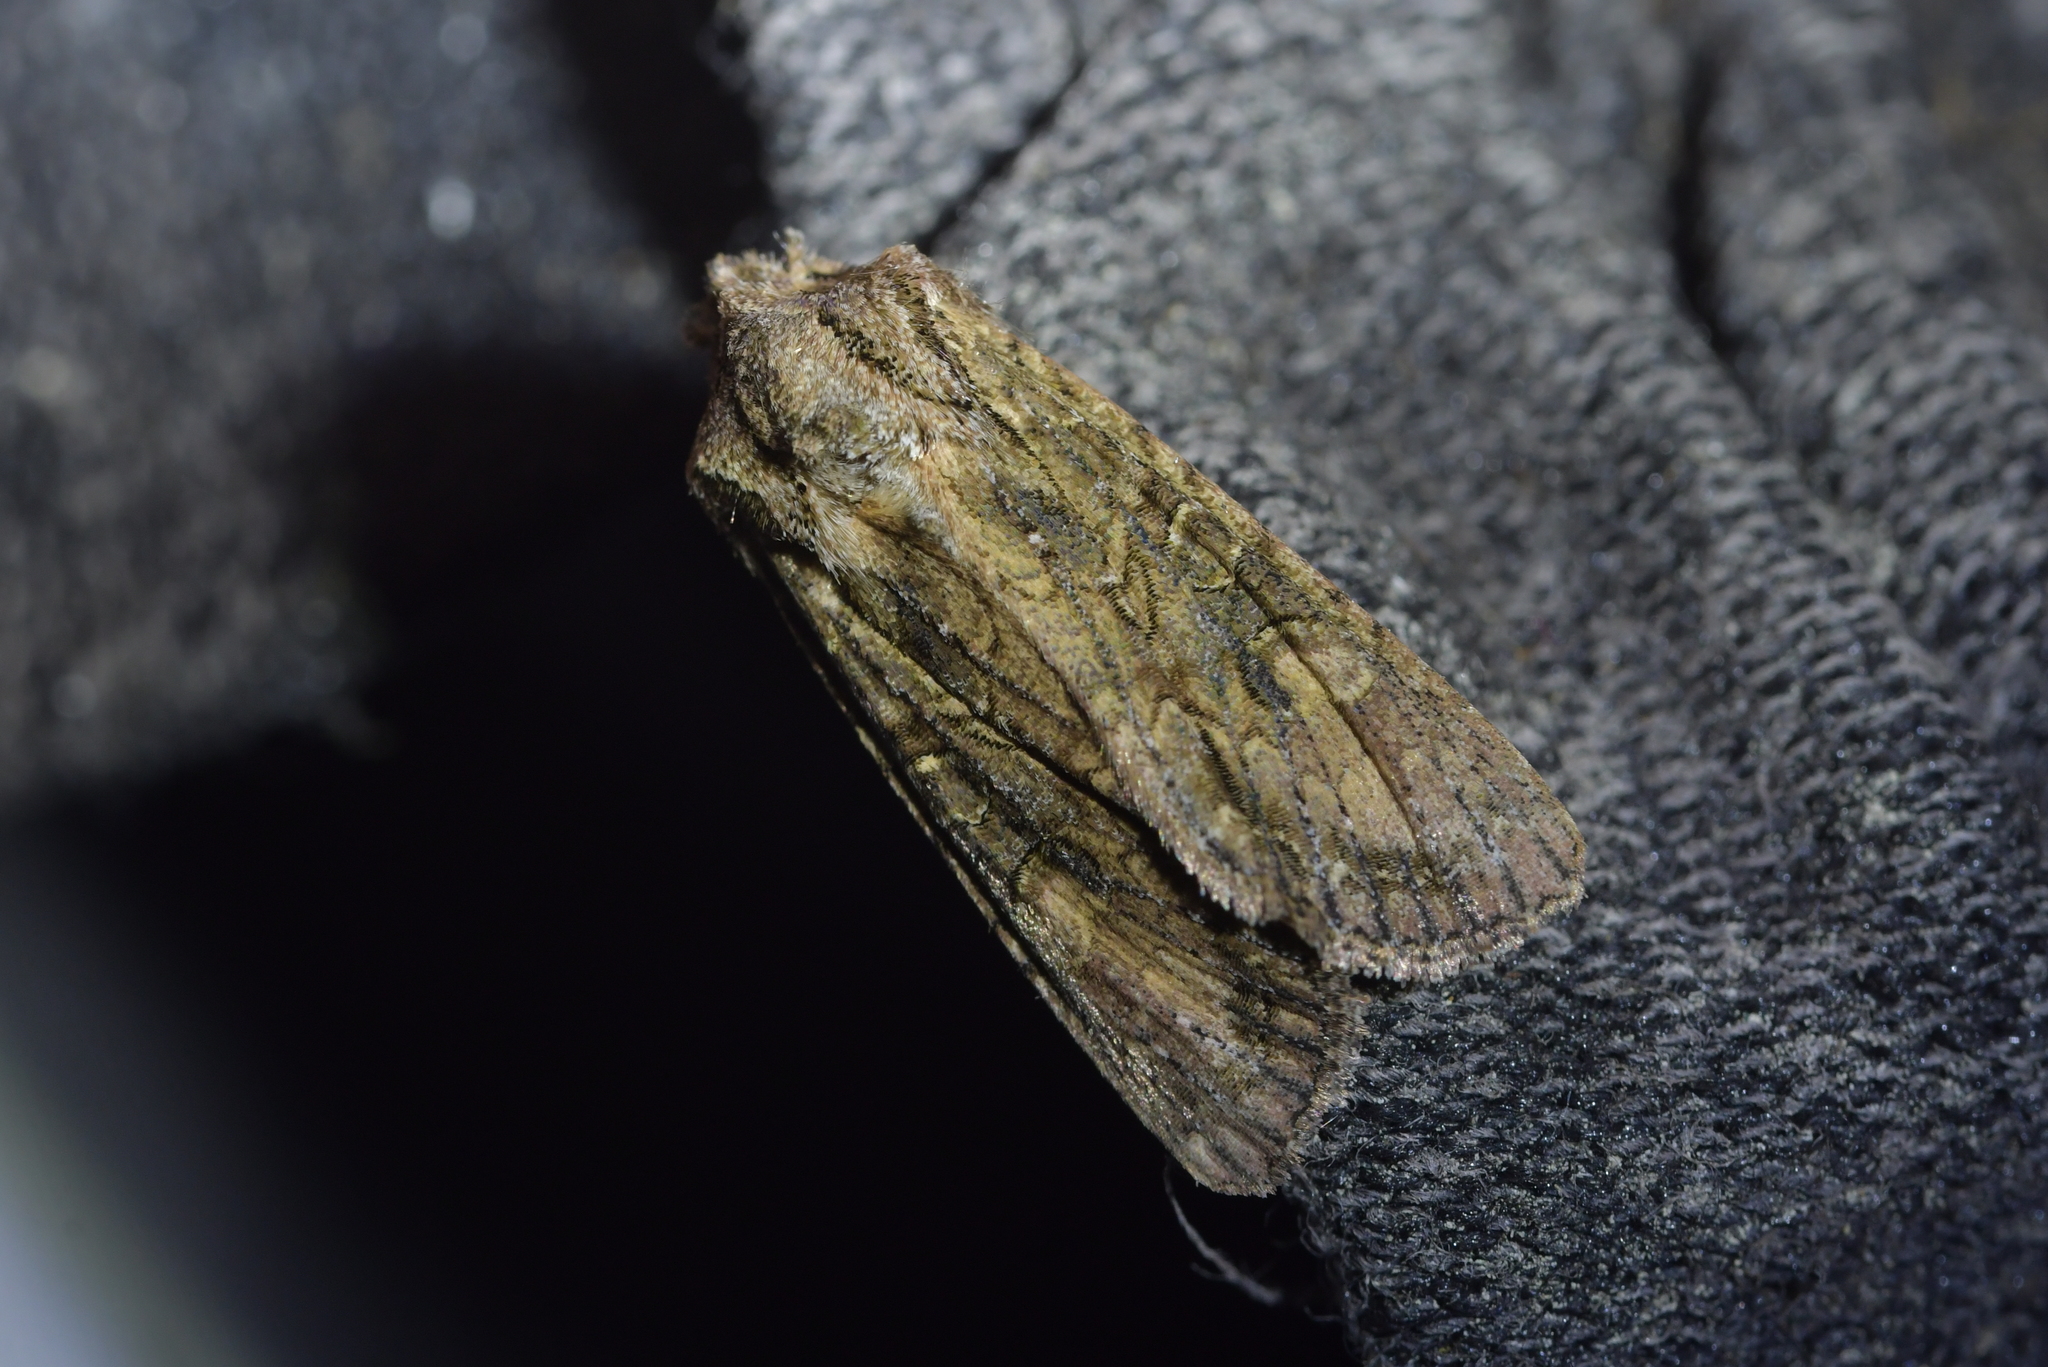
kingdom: Animalia
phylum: Arthropoda
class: Insecta
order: Lepidoptera
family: Noctuidae
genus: Ichneutica
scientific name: Ichneutica mutans
